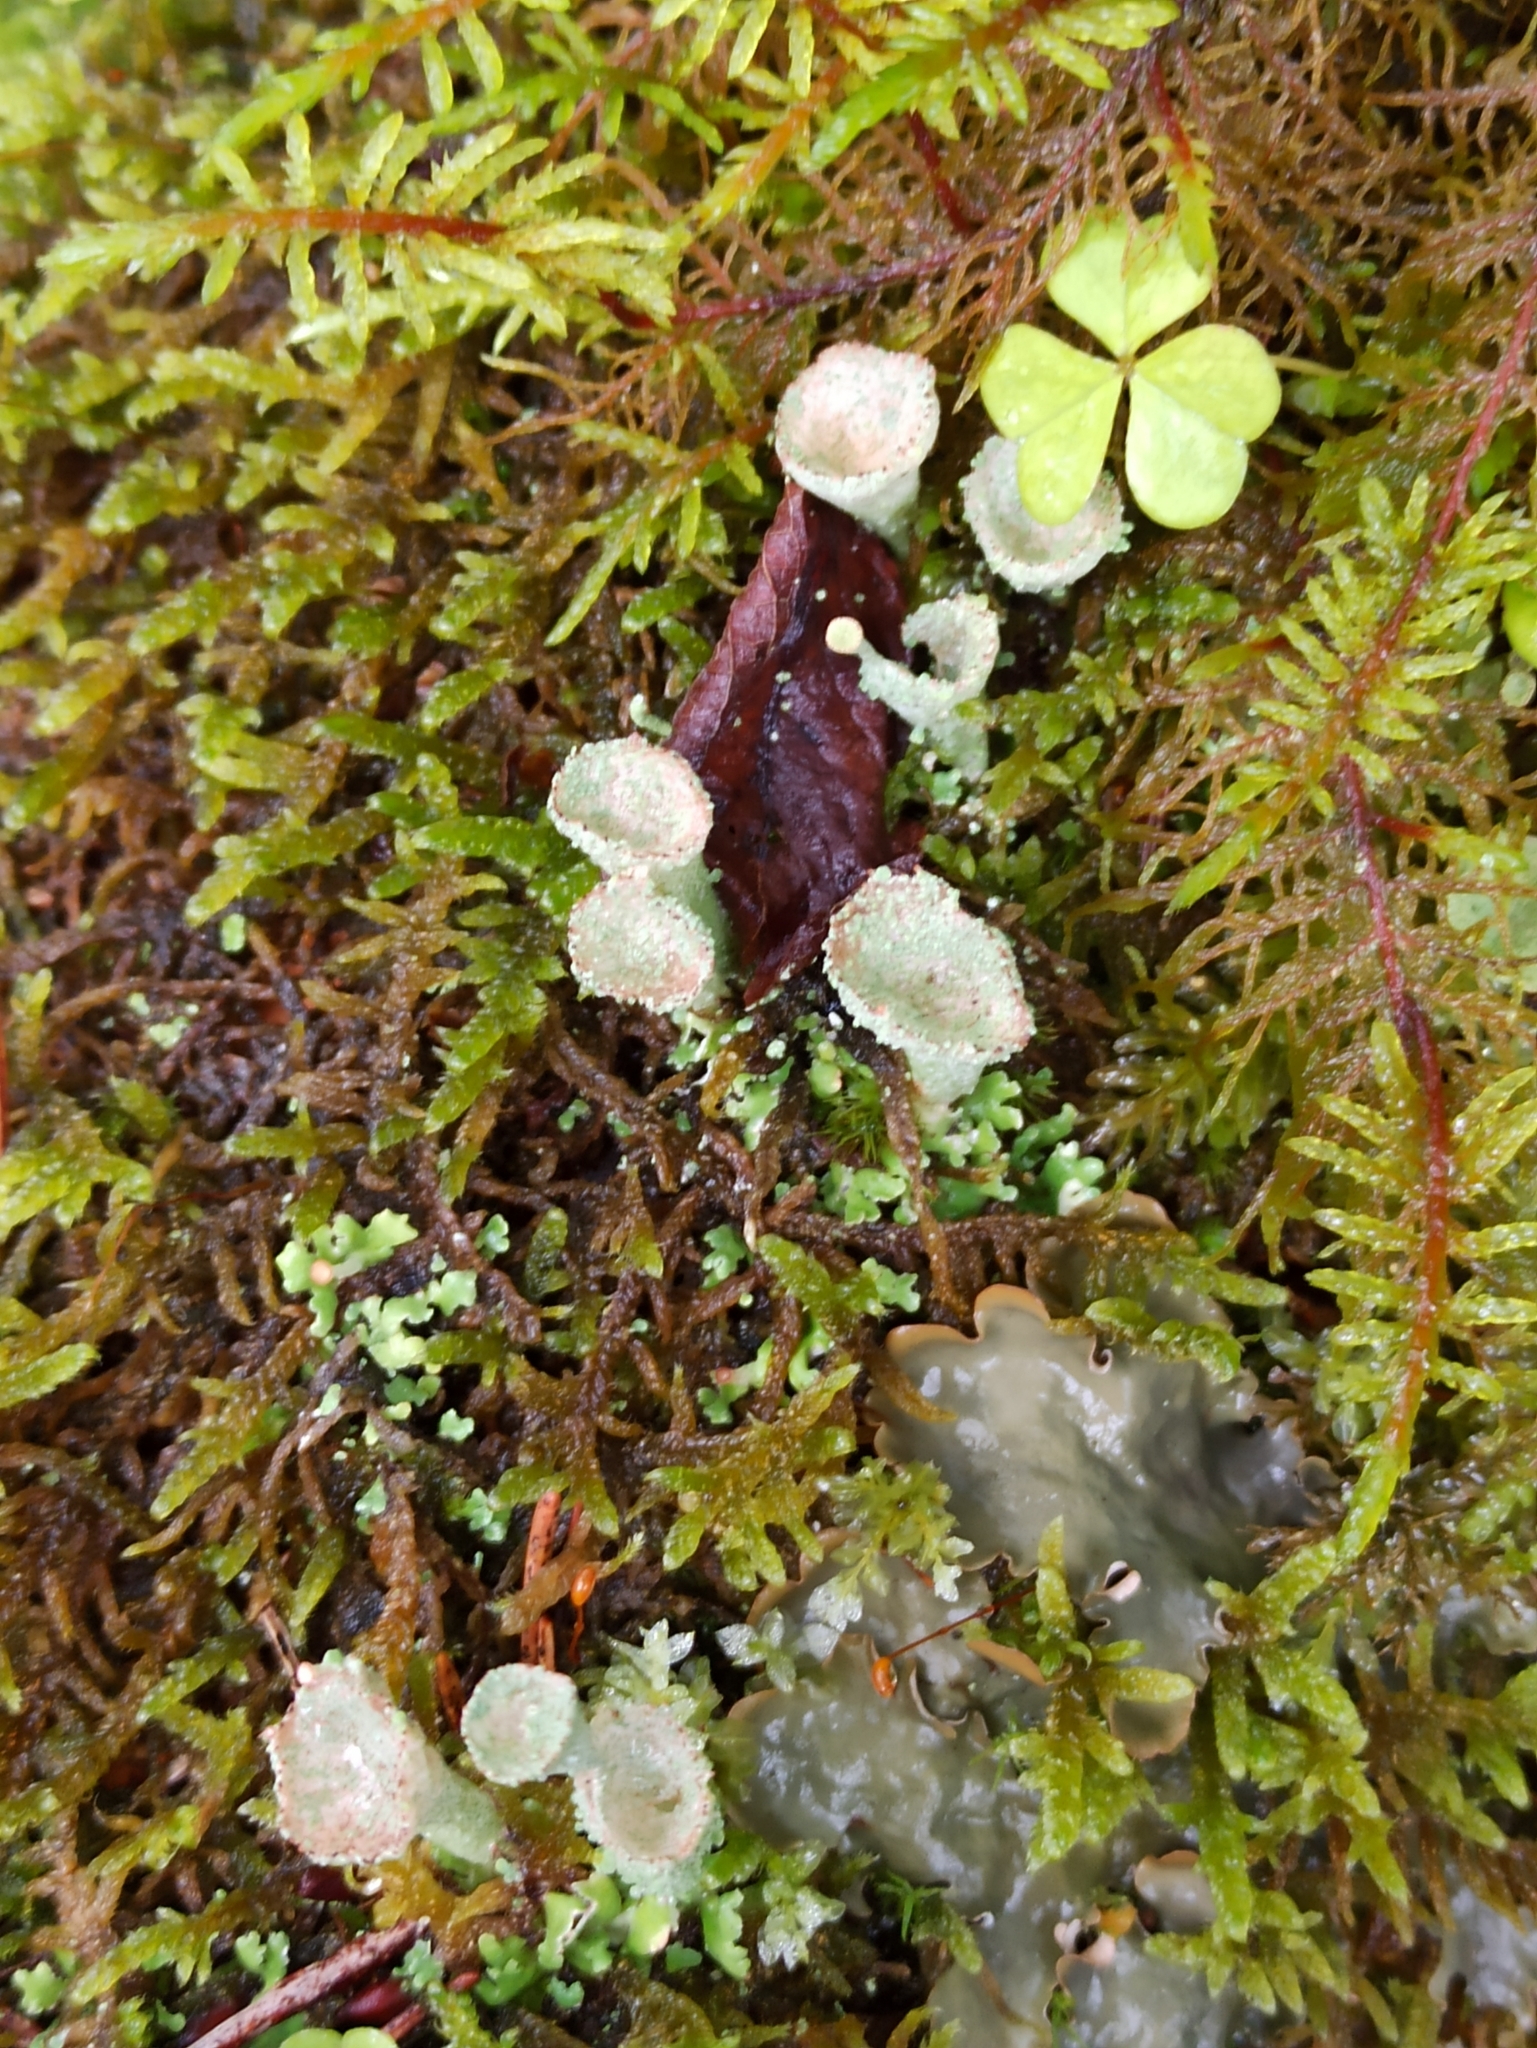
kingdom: Fungi
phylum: Ascomycota
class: Lecanoromycetes
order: Lecanorales
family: Cladoniaceae
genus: Cladonia
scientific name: Cladonia
